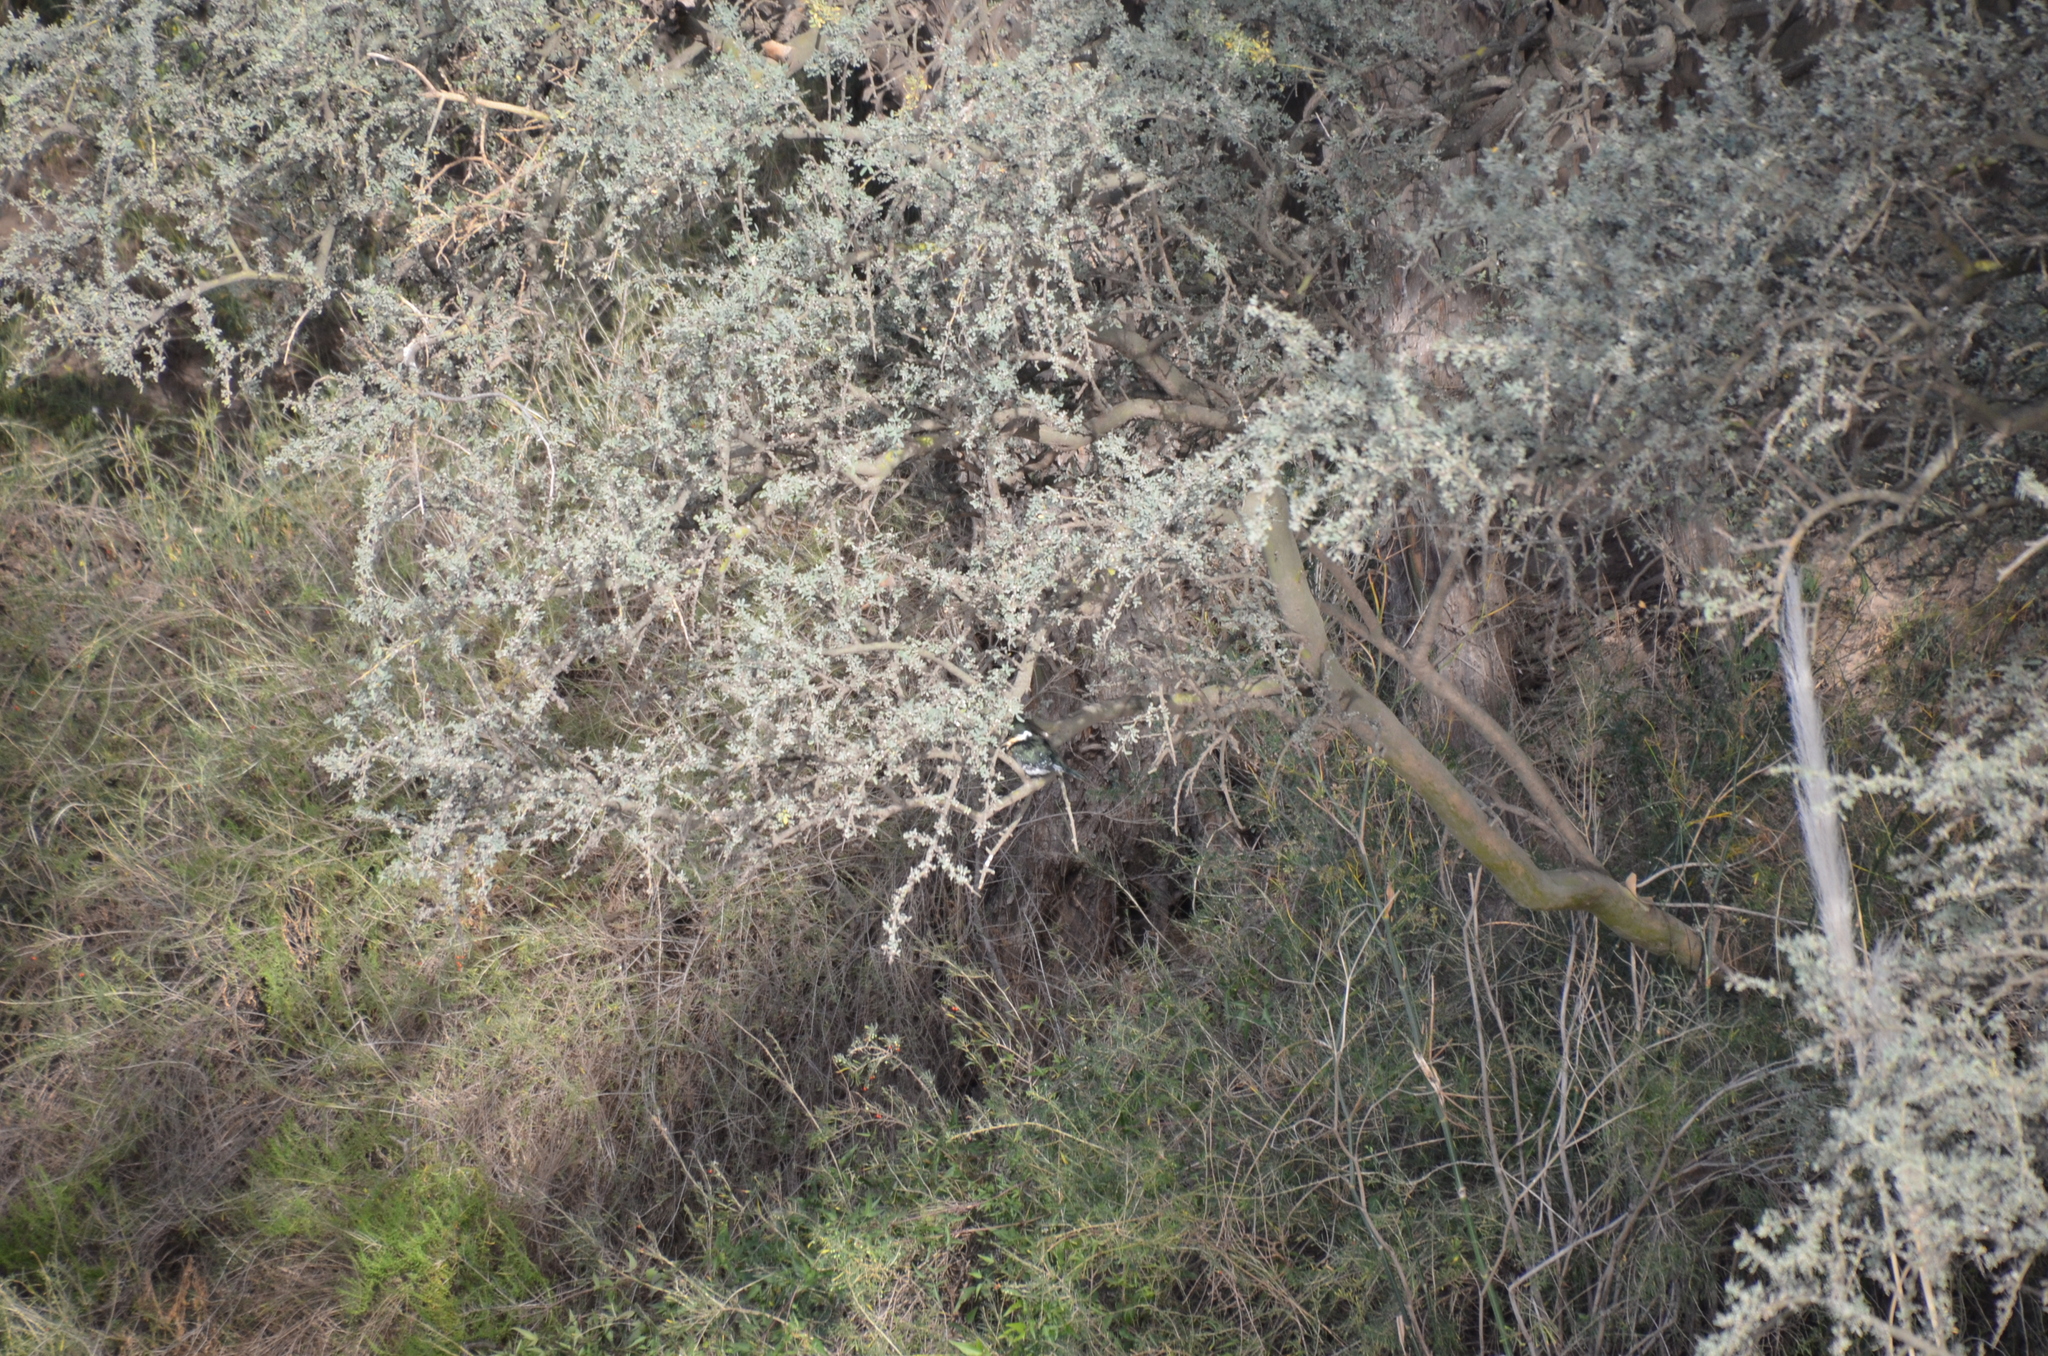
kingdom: Animalia
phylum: Chordata
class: Aves
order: Coraciiformes
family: Alcedinidae
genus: Chloroceryle
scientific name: Chloroceryle americana
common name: Green kingfisher
